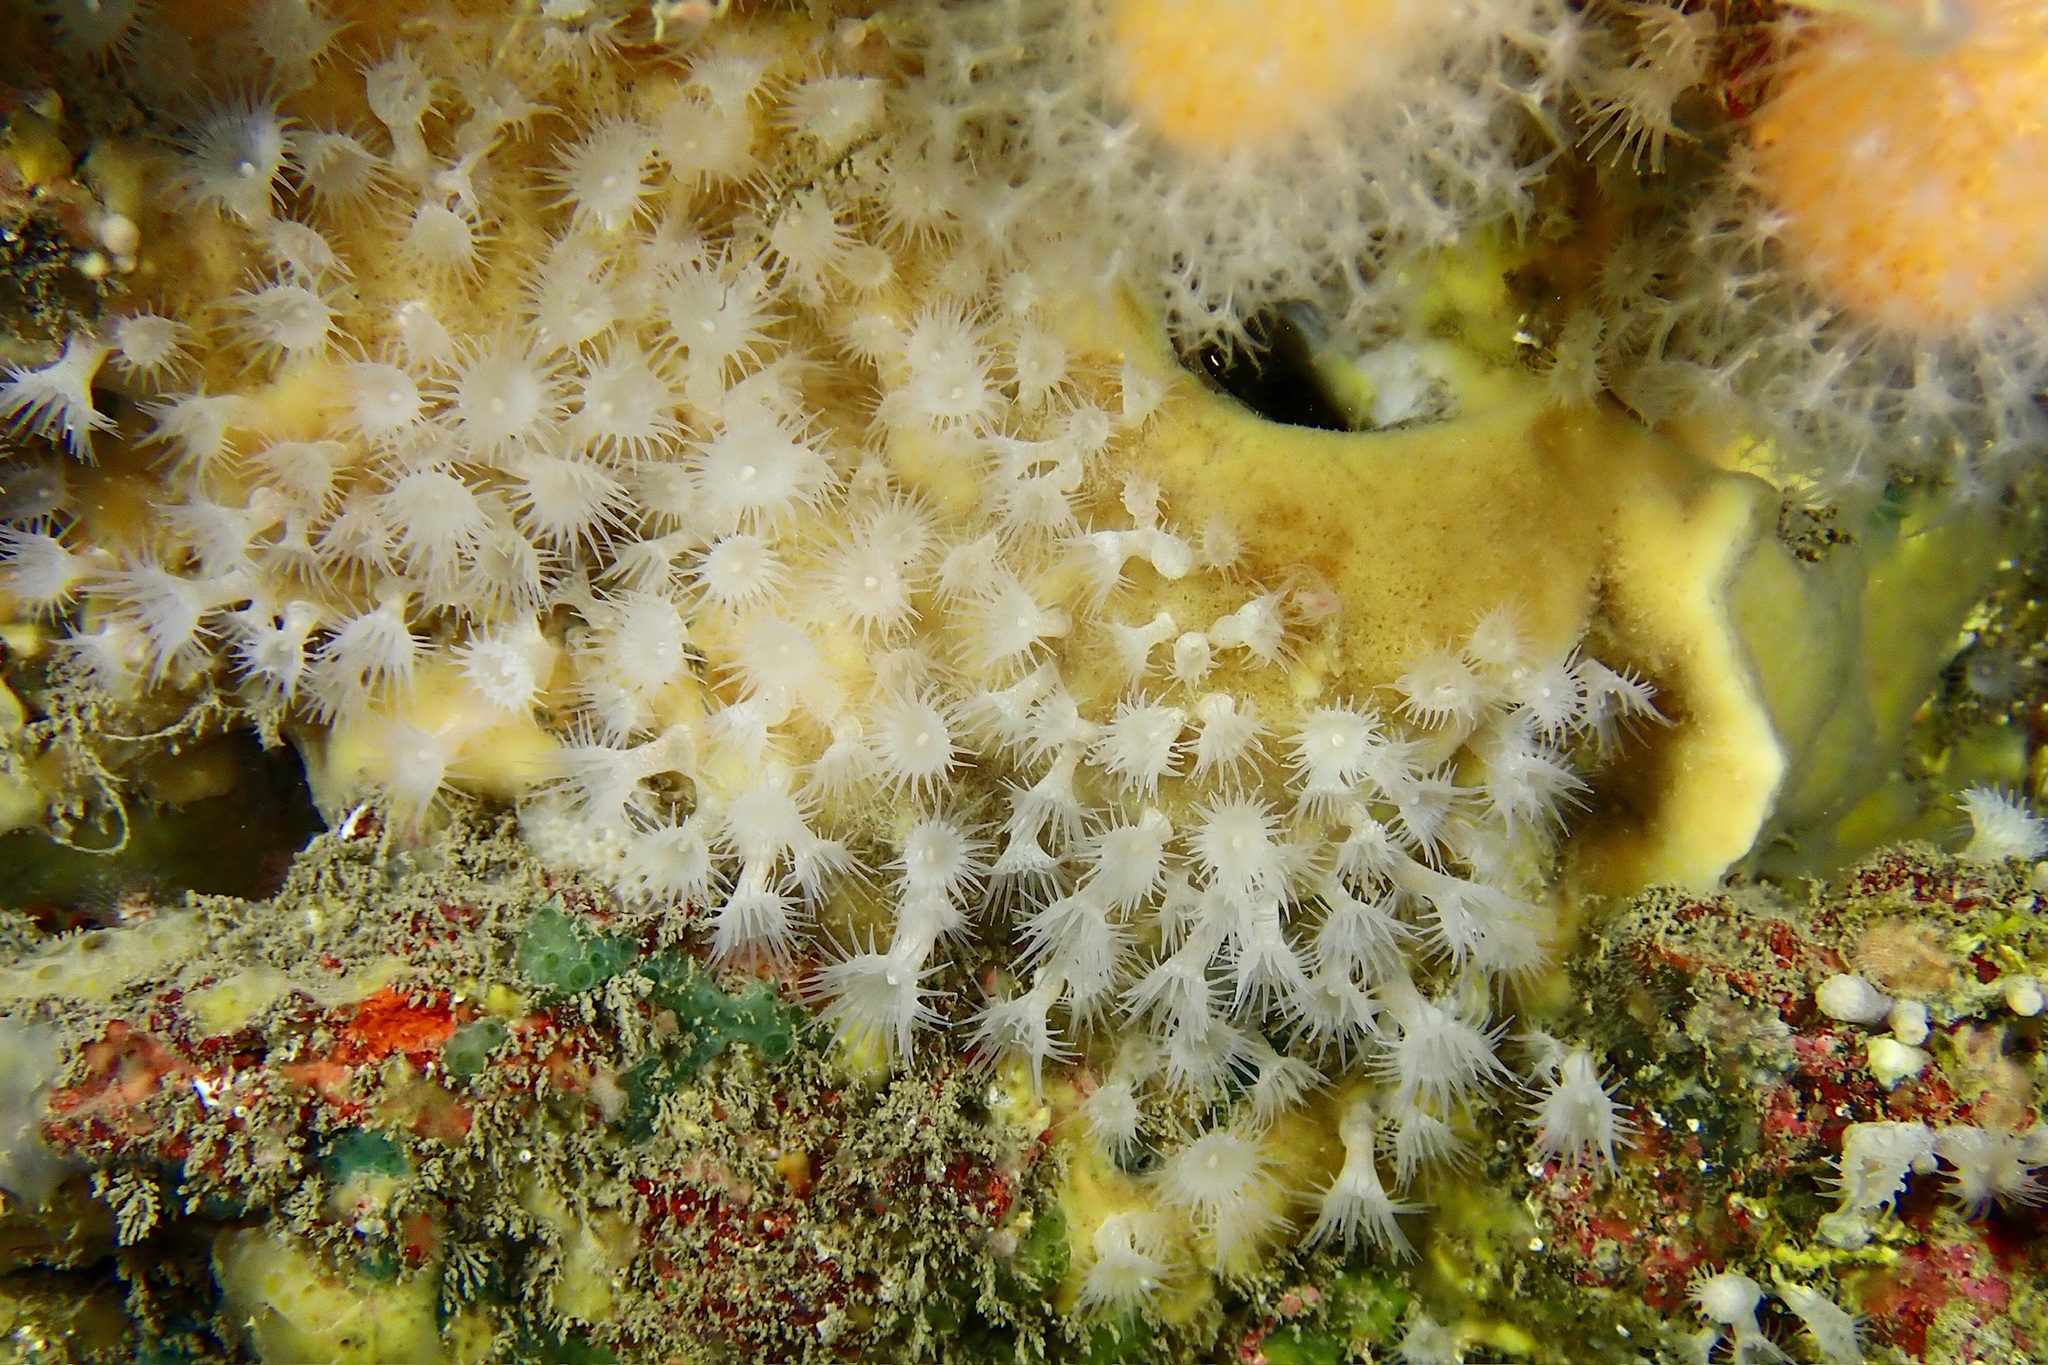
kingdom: Animalia
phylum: Cnidaria
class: Anthozoa
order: Zoantharia
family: Parazoanthidae
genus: Parazoanthus
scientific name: Parazoanthus anguicomus
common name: White cluster anemone
